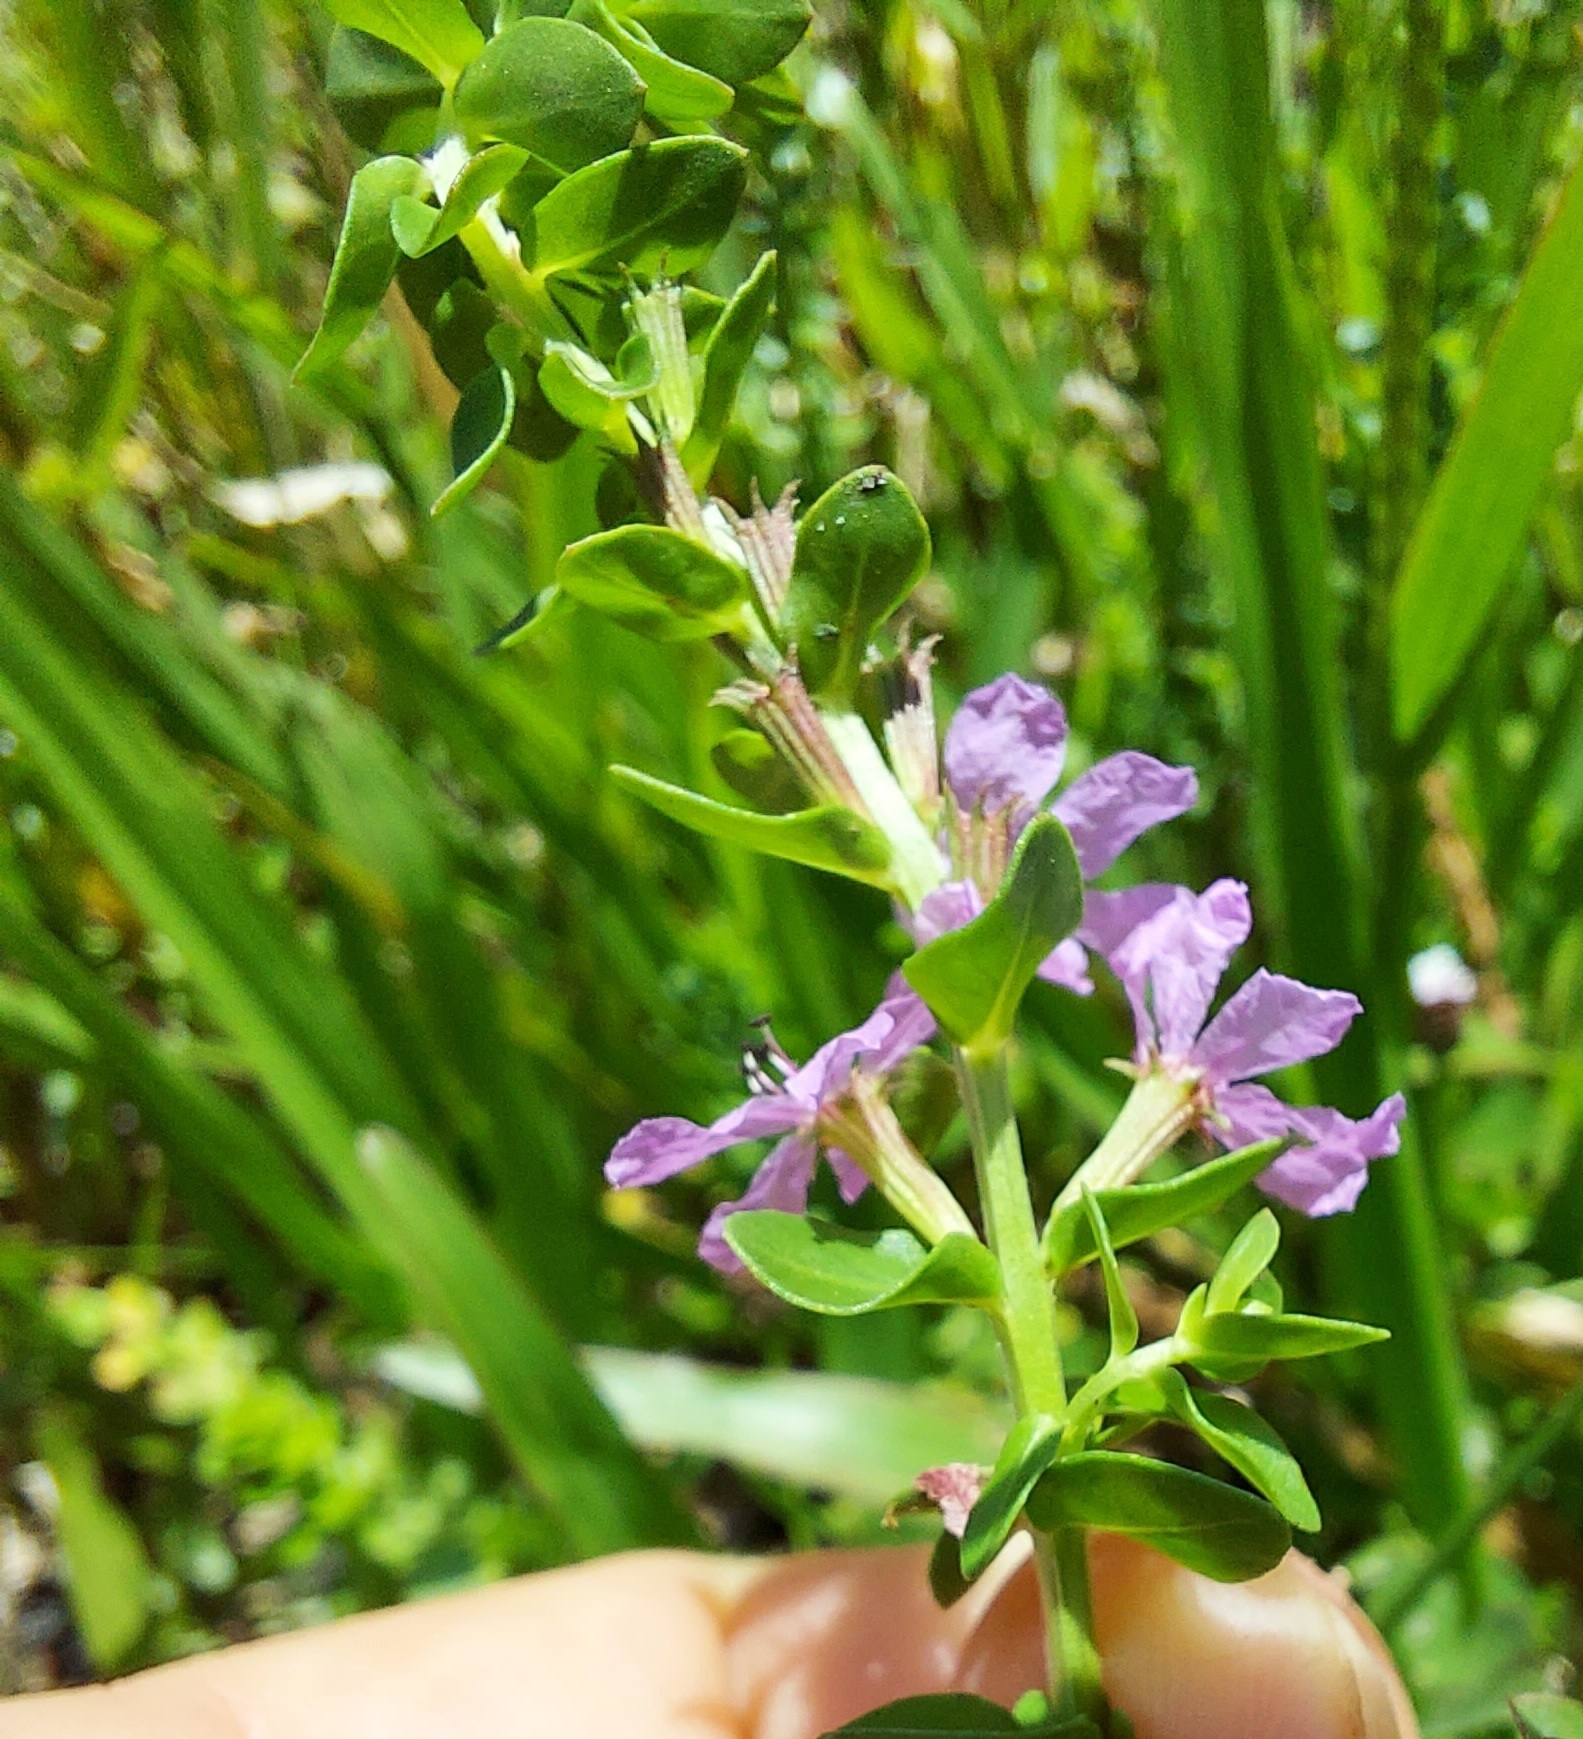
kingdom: Plantae
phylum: Tracheophyta
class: Magnoliopsida
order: Myrtales
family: Lythraceae
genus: Lythrum
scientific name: Lythrum alatum
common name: Winged loosestrife
